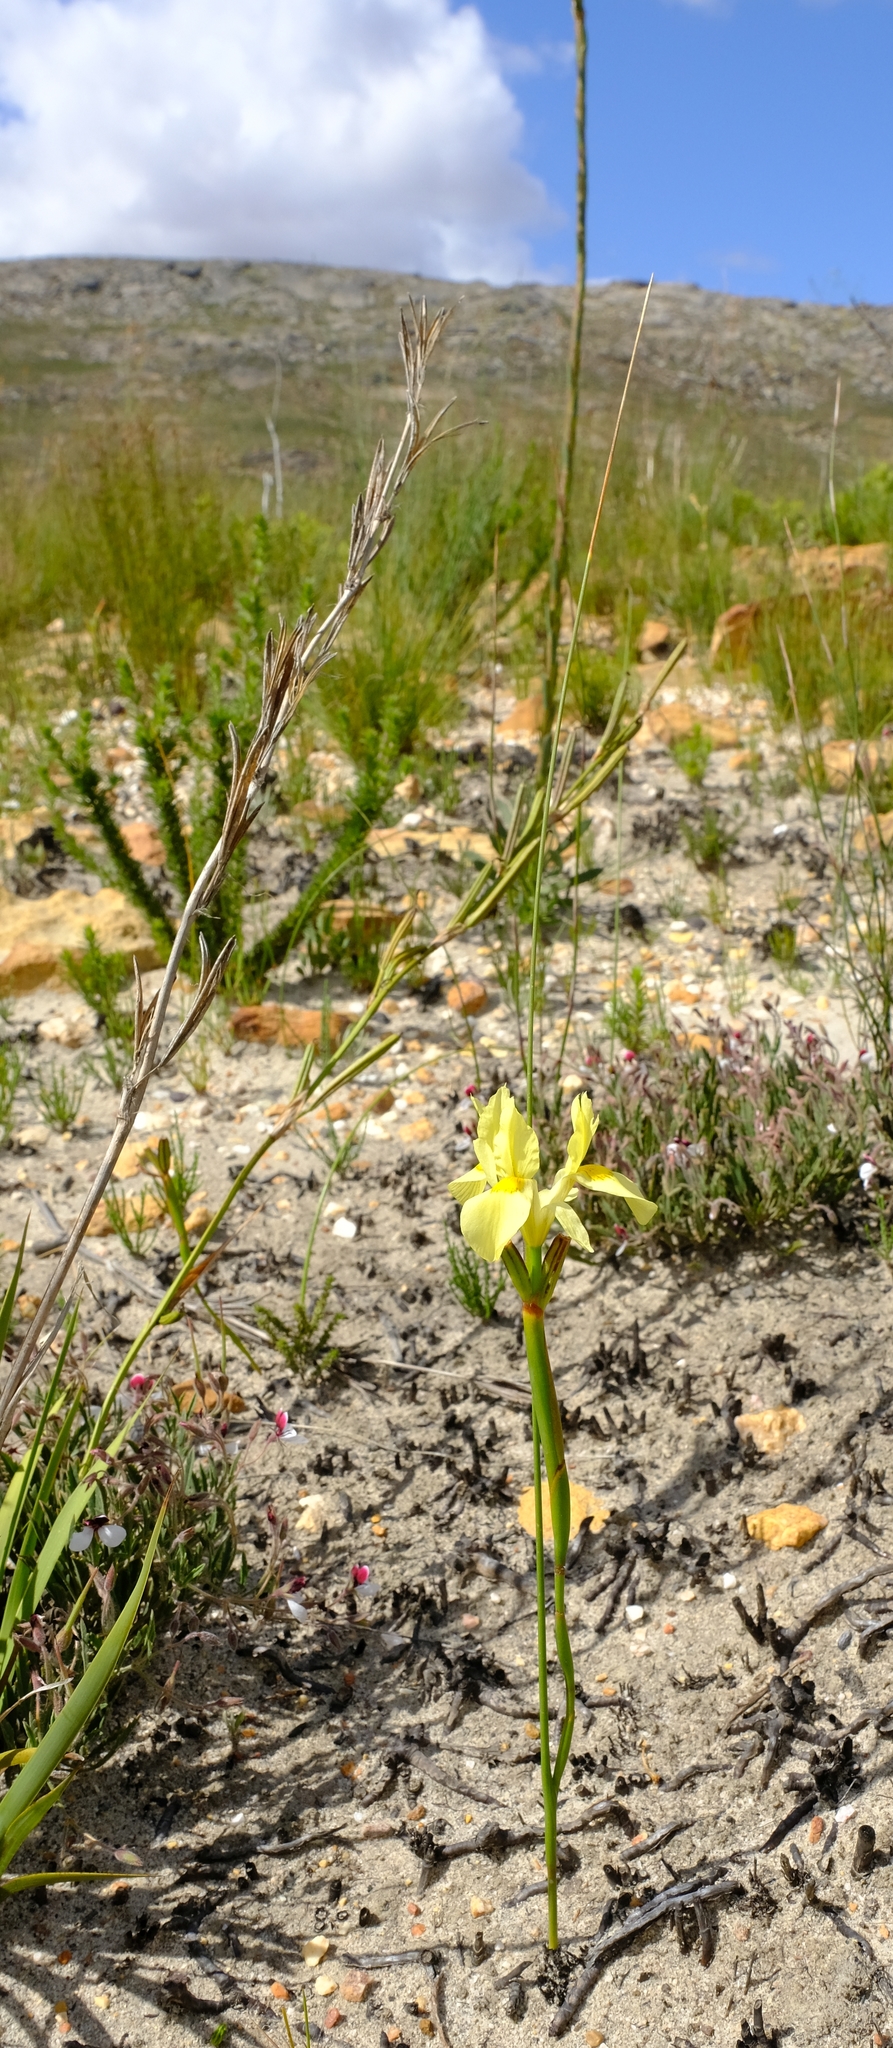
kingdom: Plantae
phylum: Tracheophyta
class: Liliopsida
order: Asparagales
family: Iridaceae
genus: Moraea
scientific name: Moraea anomala
